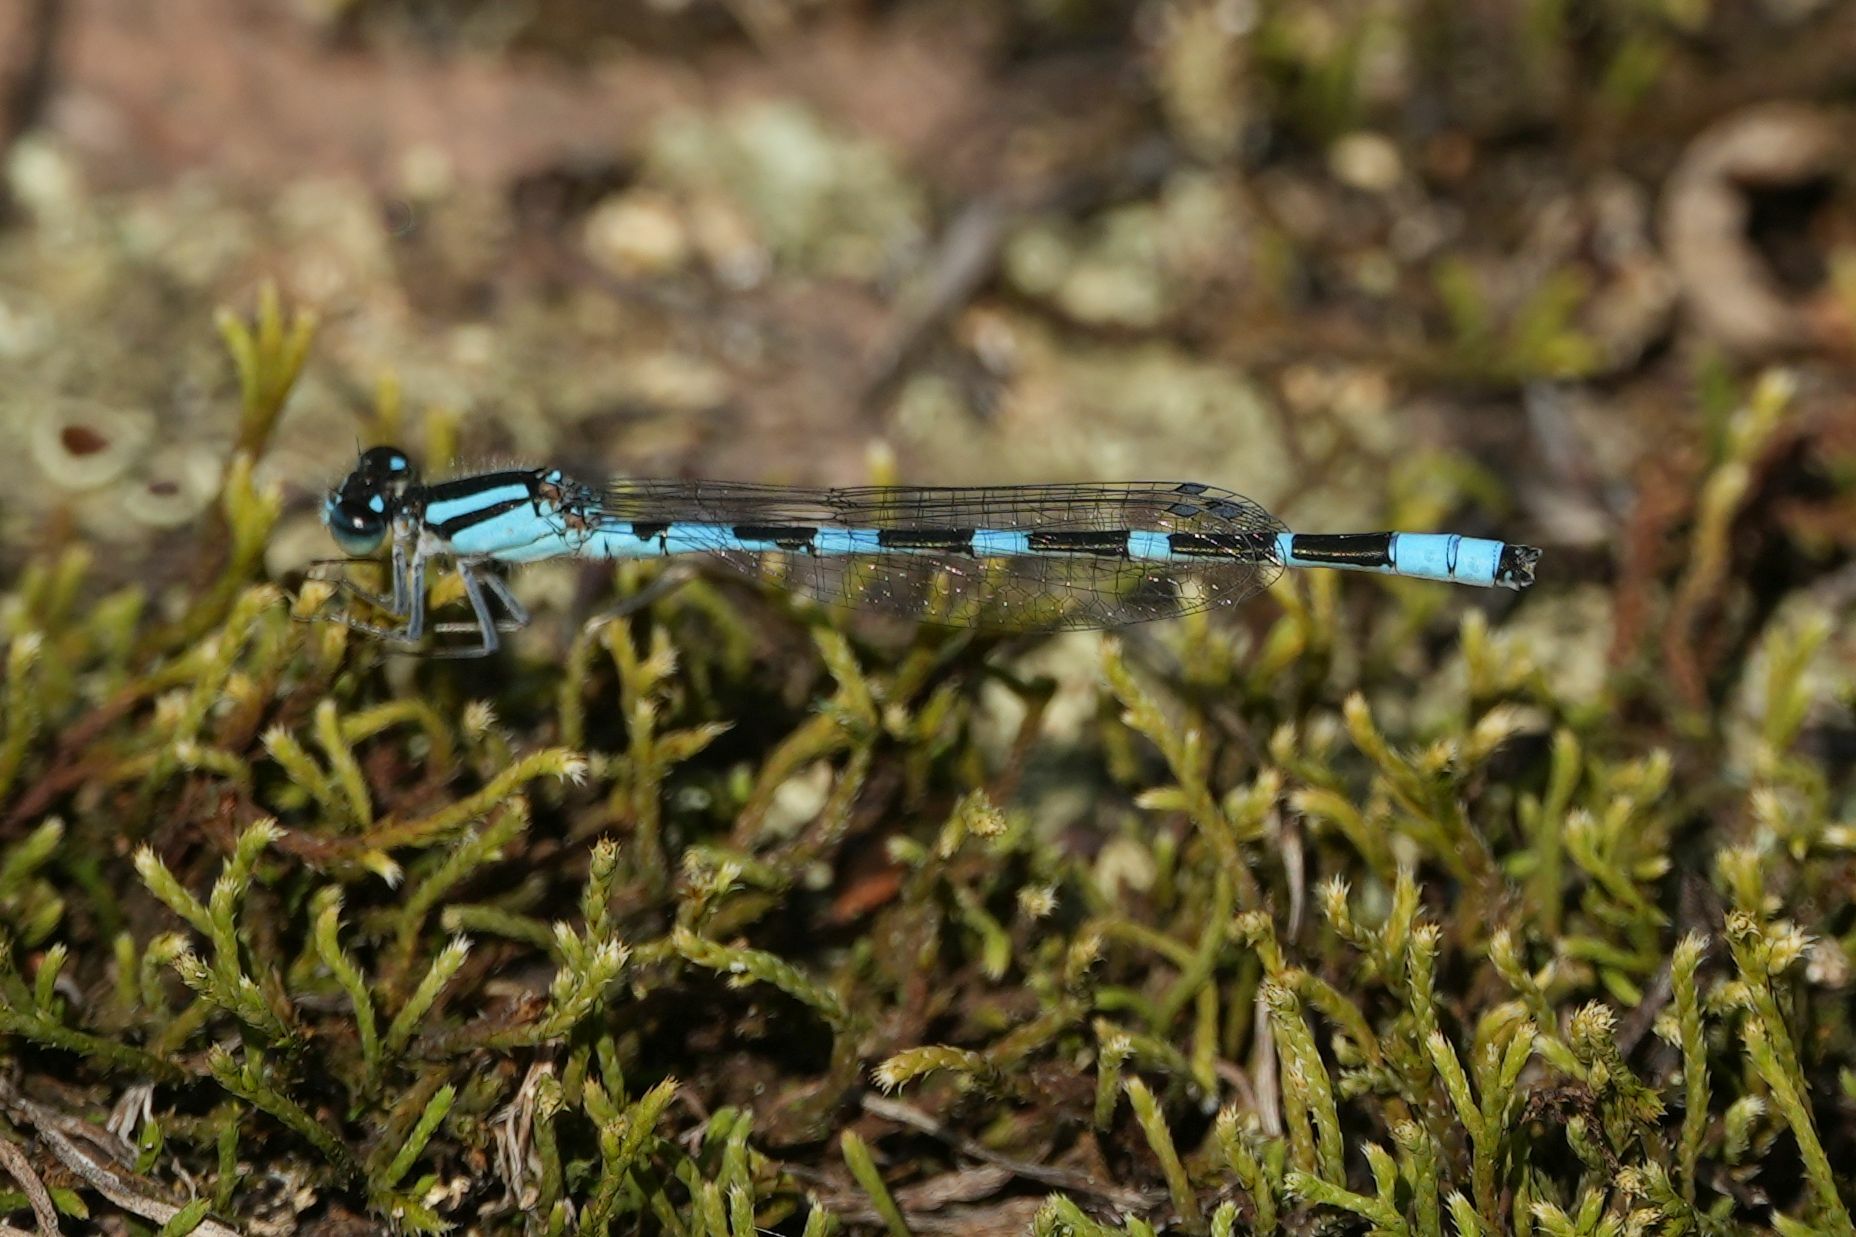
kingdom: Animalia
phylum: Arthropoda
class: Insecta
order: Odonata
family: Coenagrionidae
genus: Enallagma
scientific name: Enallagma carunculatum
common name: Tule bluet
